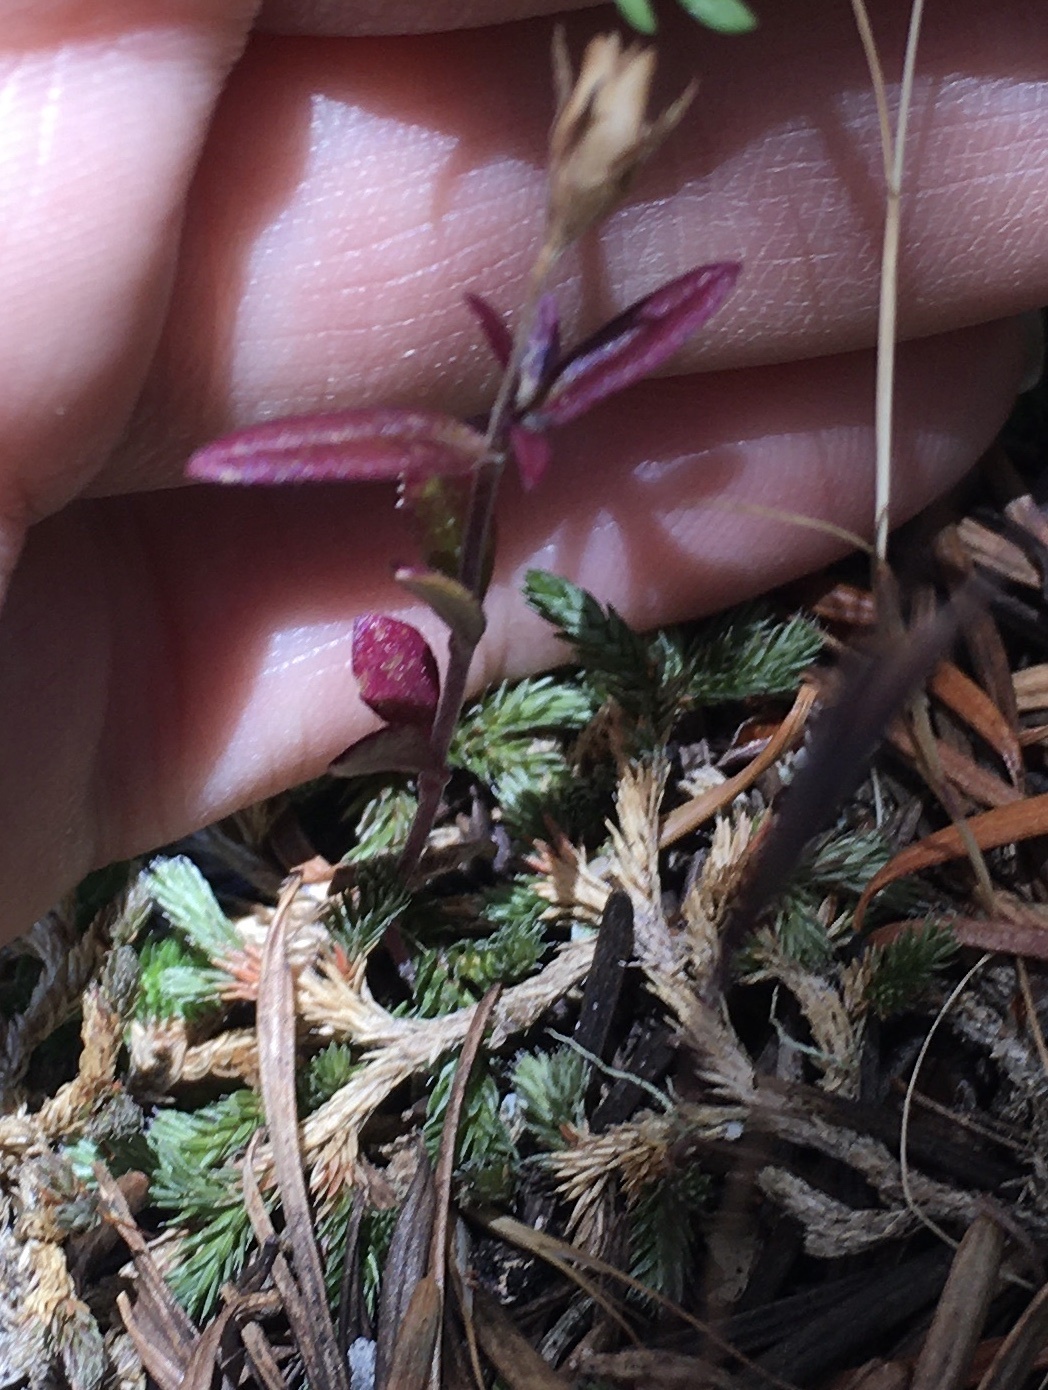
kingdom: Plantae
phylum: Tracheophyta
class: Magnoliopsida
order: Myrtales
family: Onagraceae
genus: Epilobium
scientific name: Epilobium minutum
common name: Chaparral willowherb
